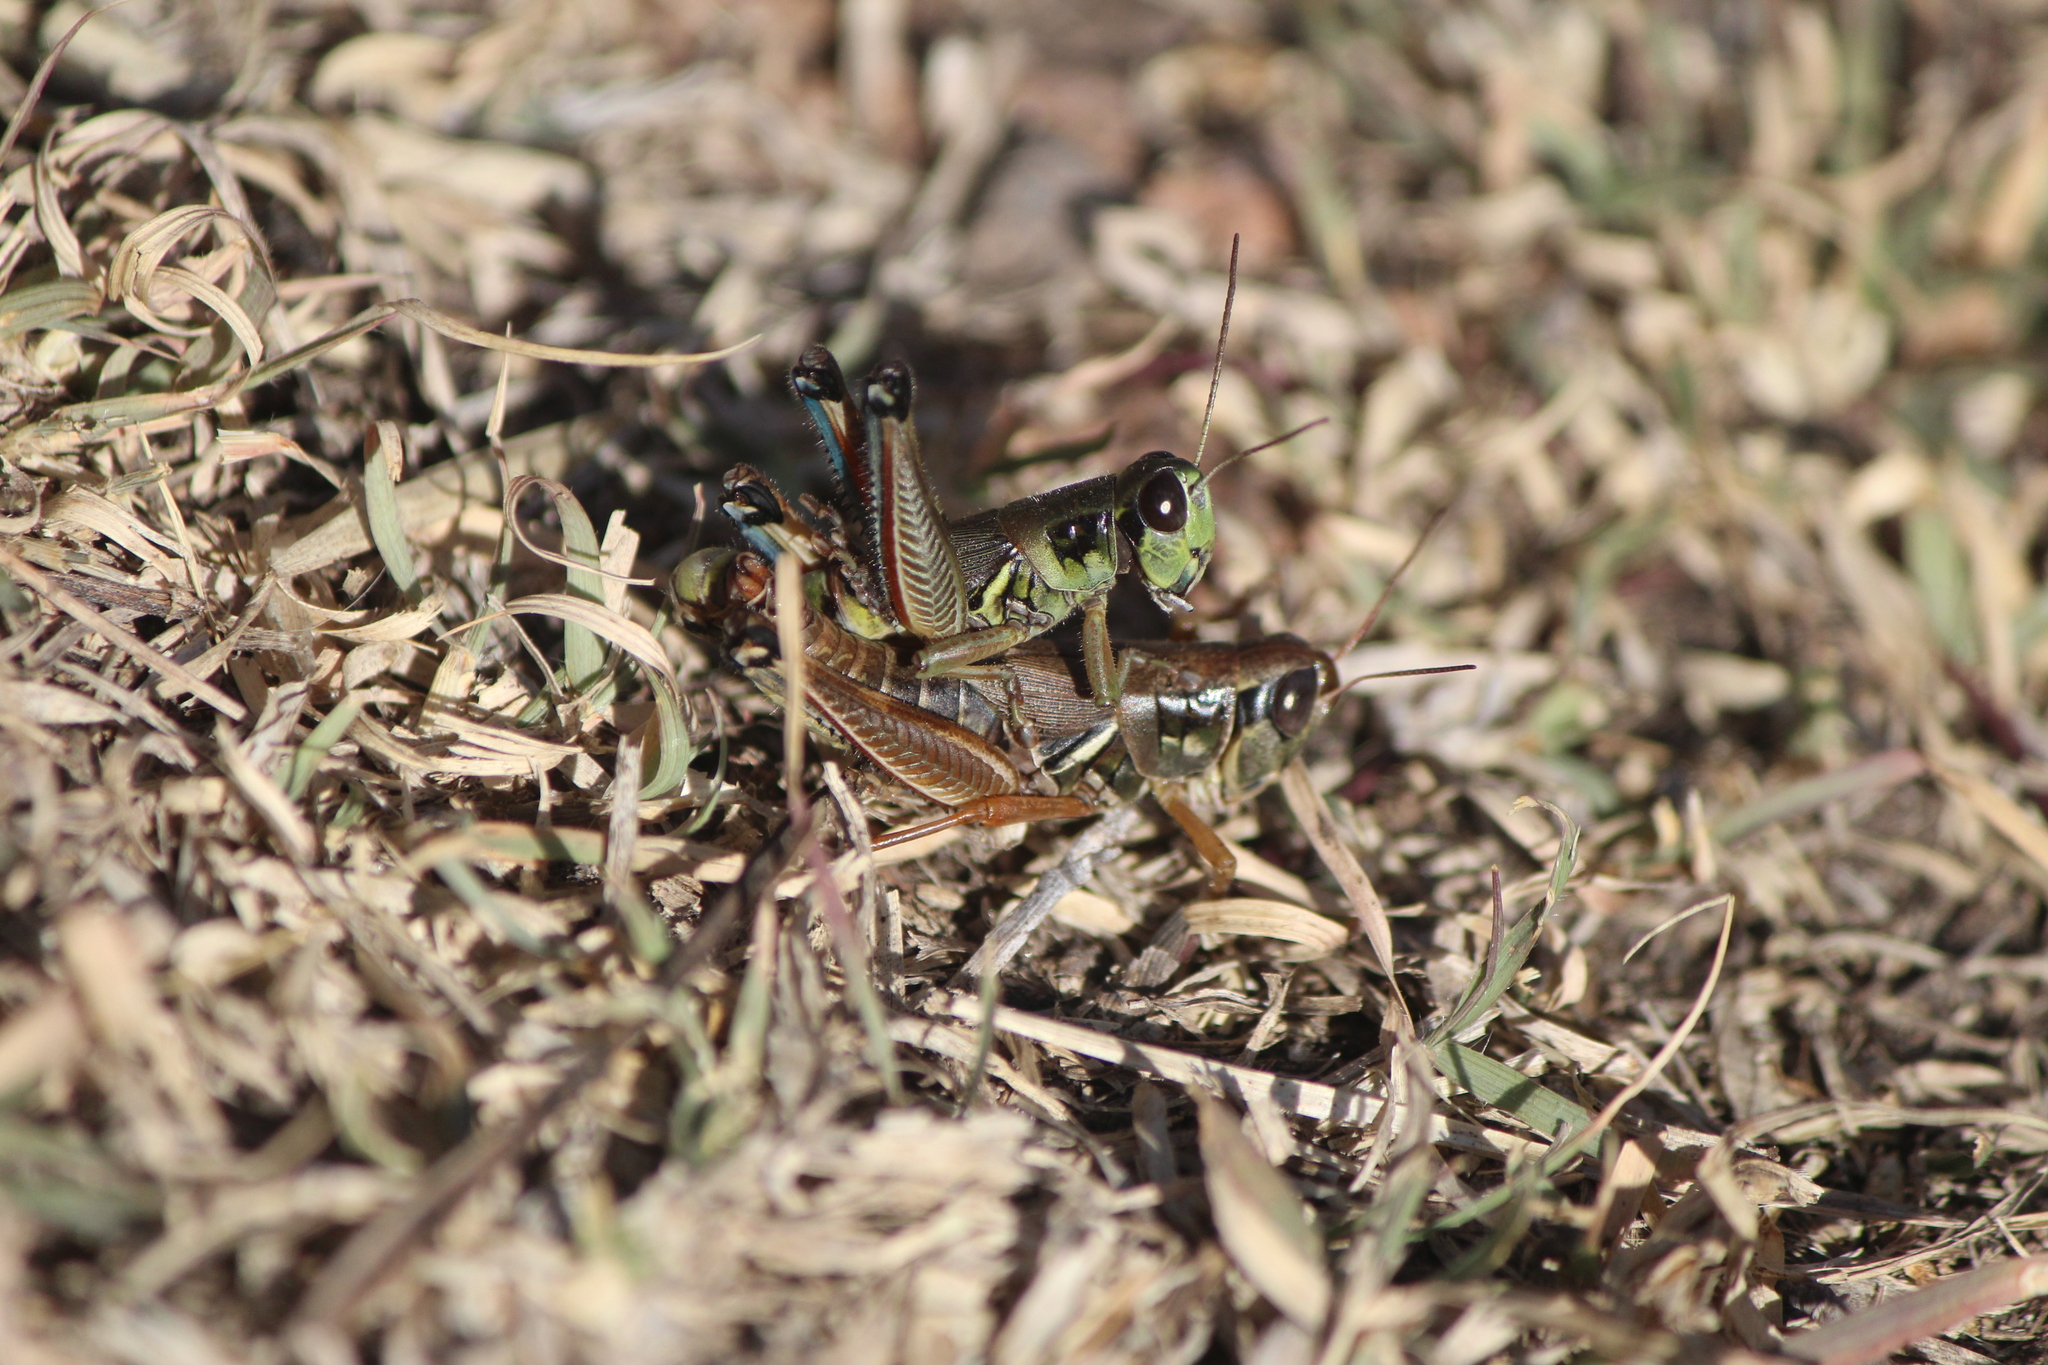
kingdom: Animalia
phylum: Arthropoda
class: Insecta
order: Orthoptera
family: Acrididae
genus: Phoetaliotes
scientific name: Phoetaliotes nebrascensis
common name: Large-headed grasshopper
